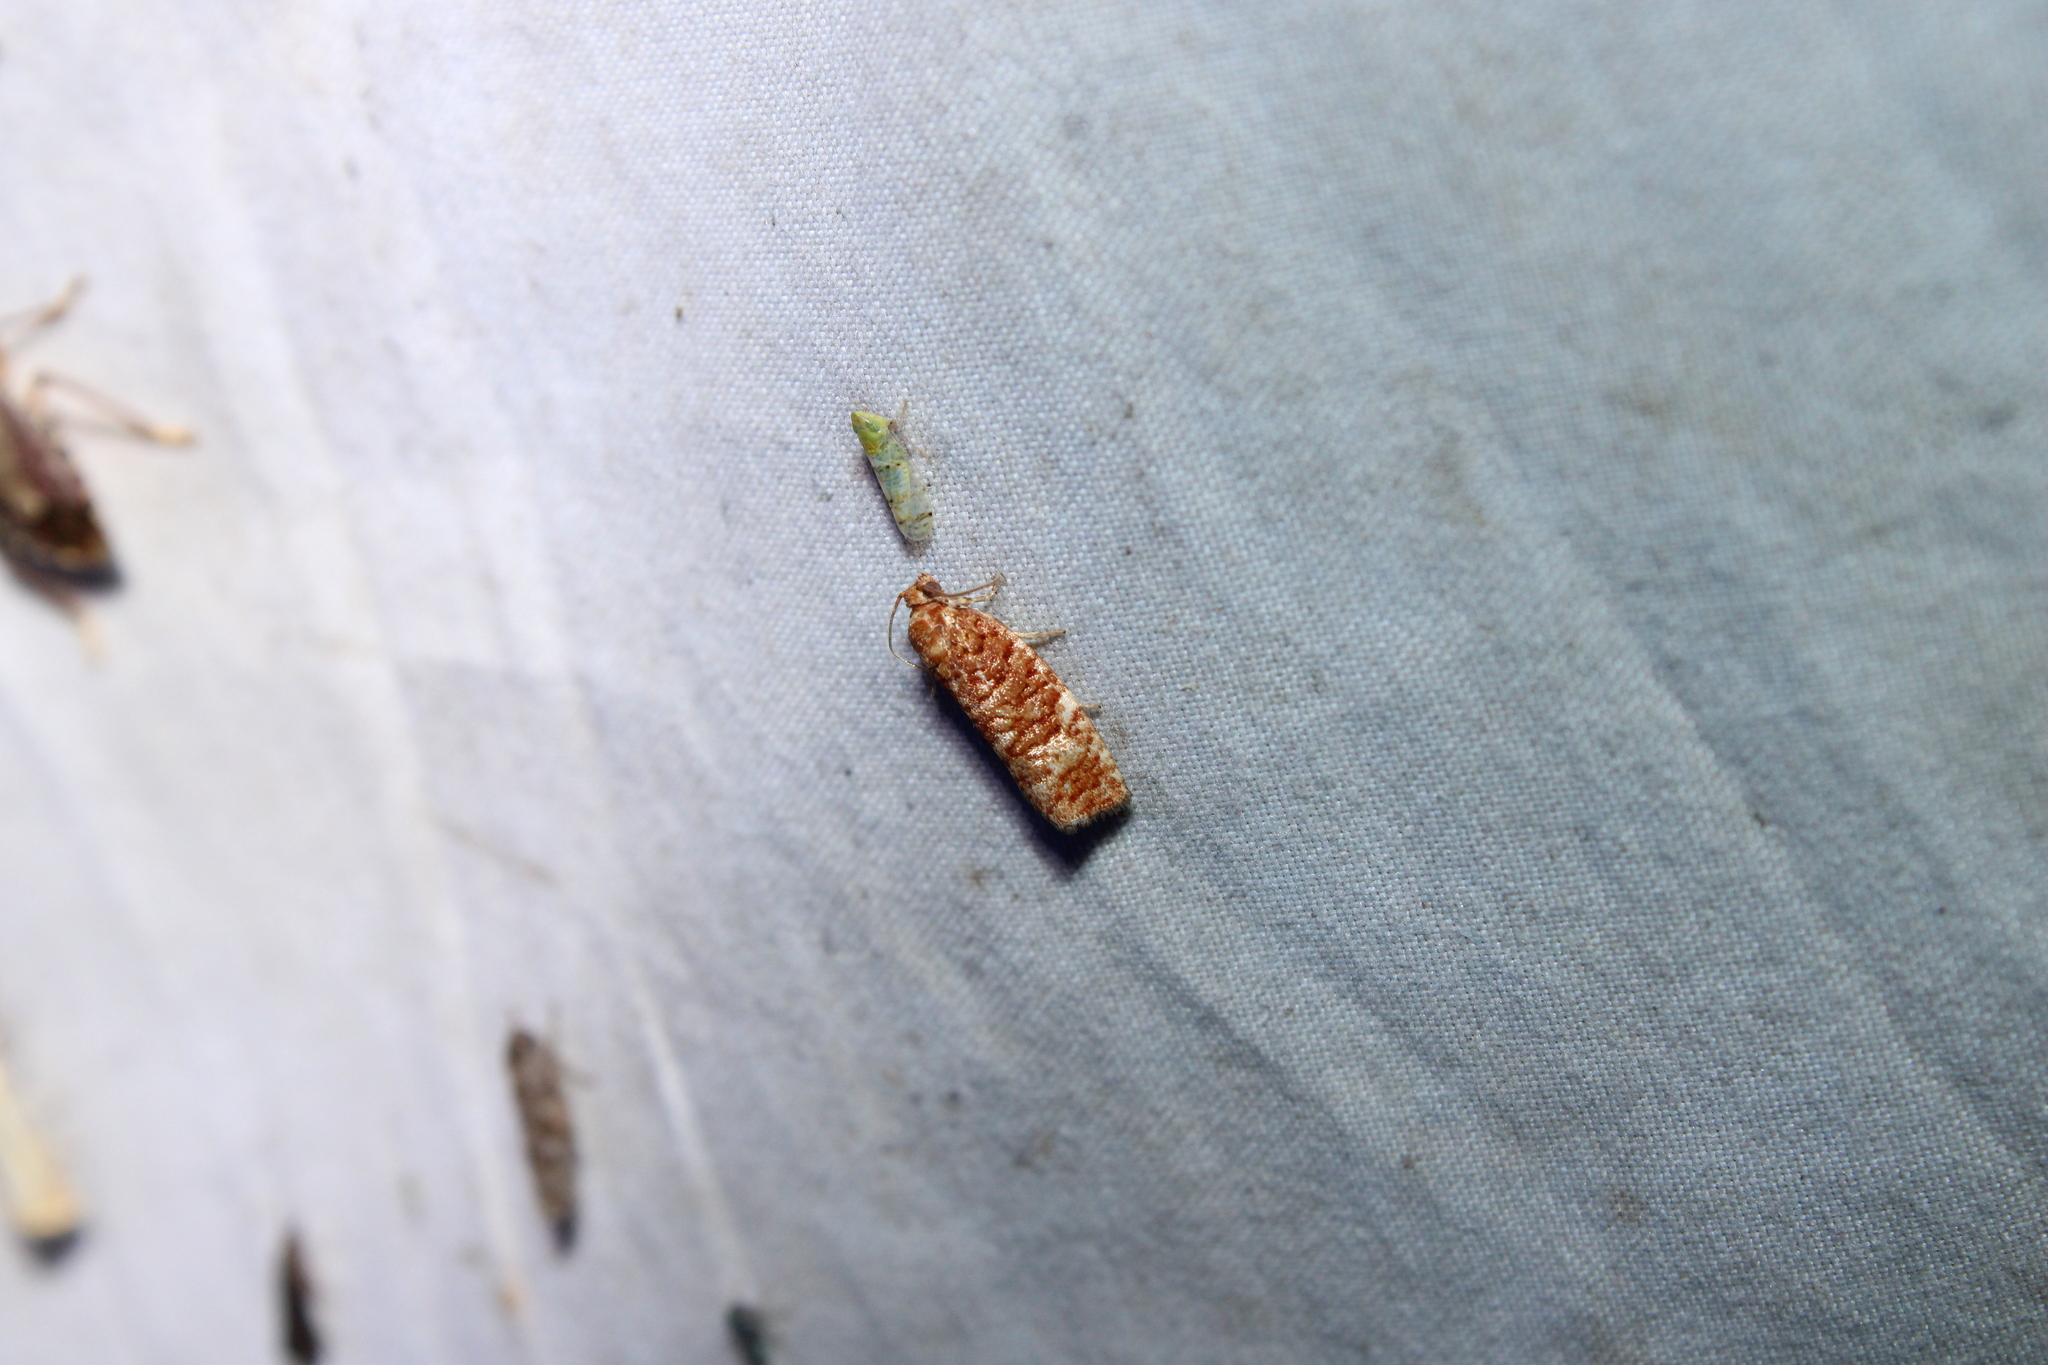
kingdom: Animalia
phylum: Arthropoda
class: Insecta
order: Lepidoptera
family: Tortricidae
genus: Choristoneura
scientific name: Choristoneura pinus
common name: Jack pine budworm
